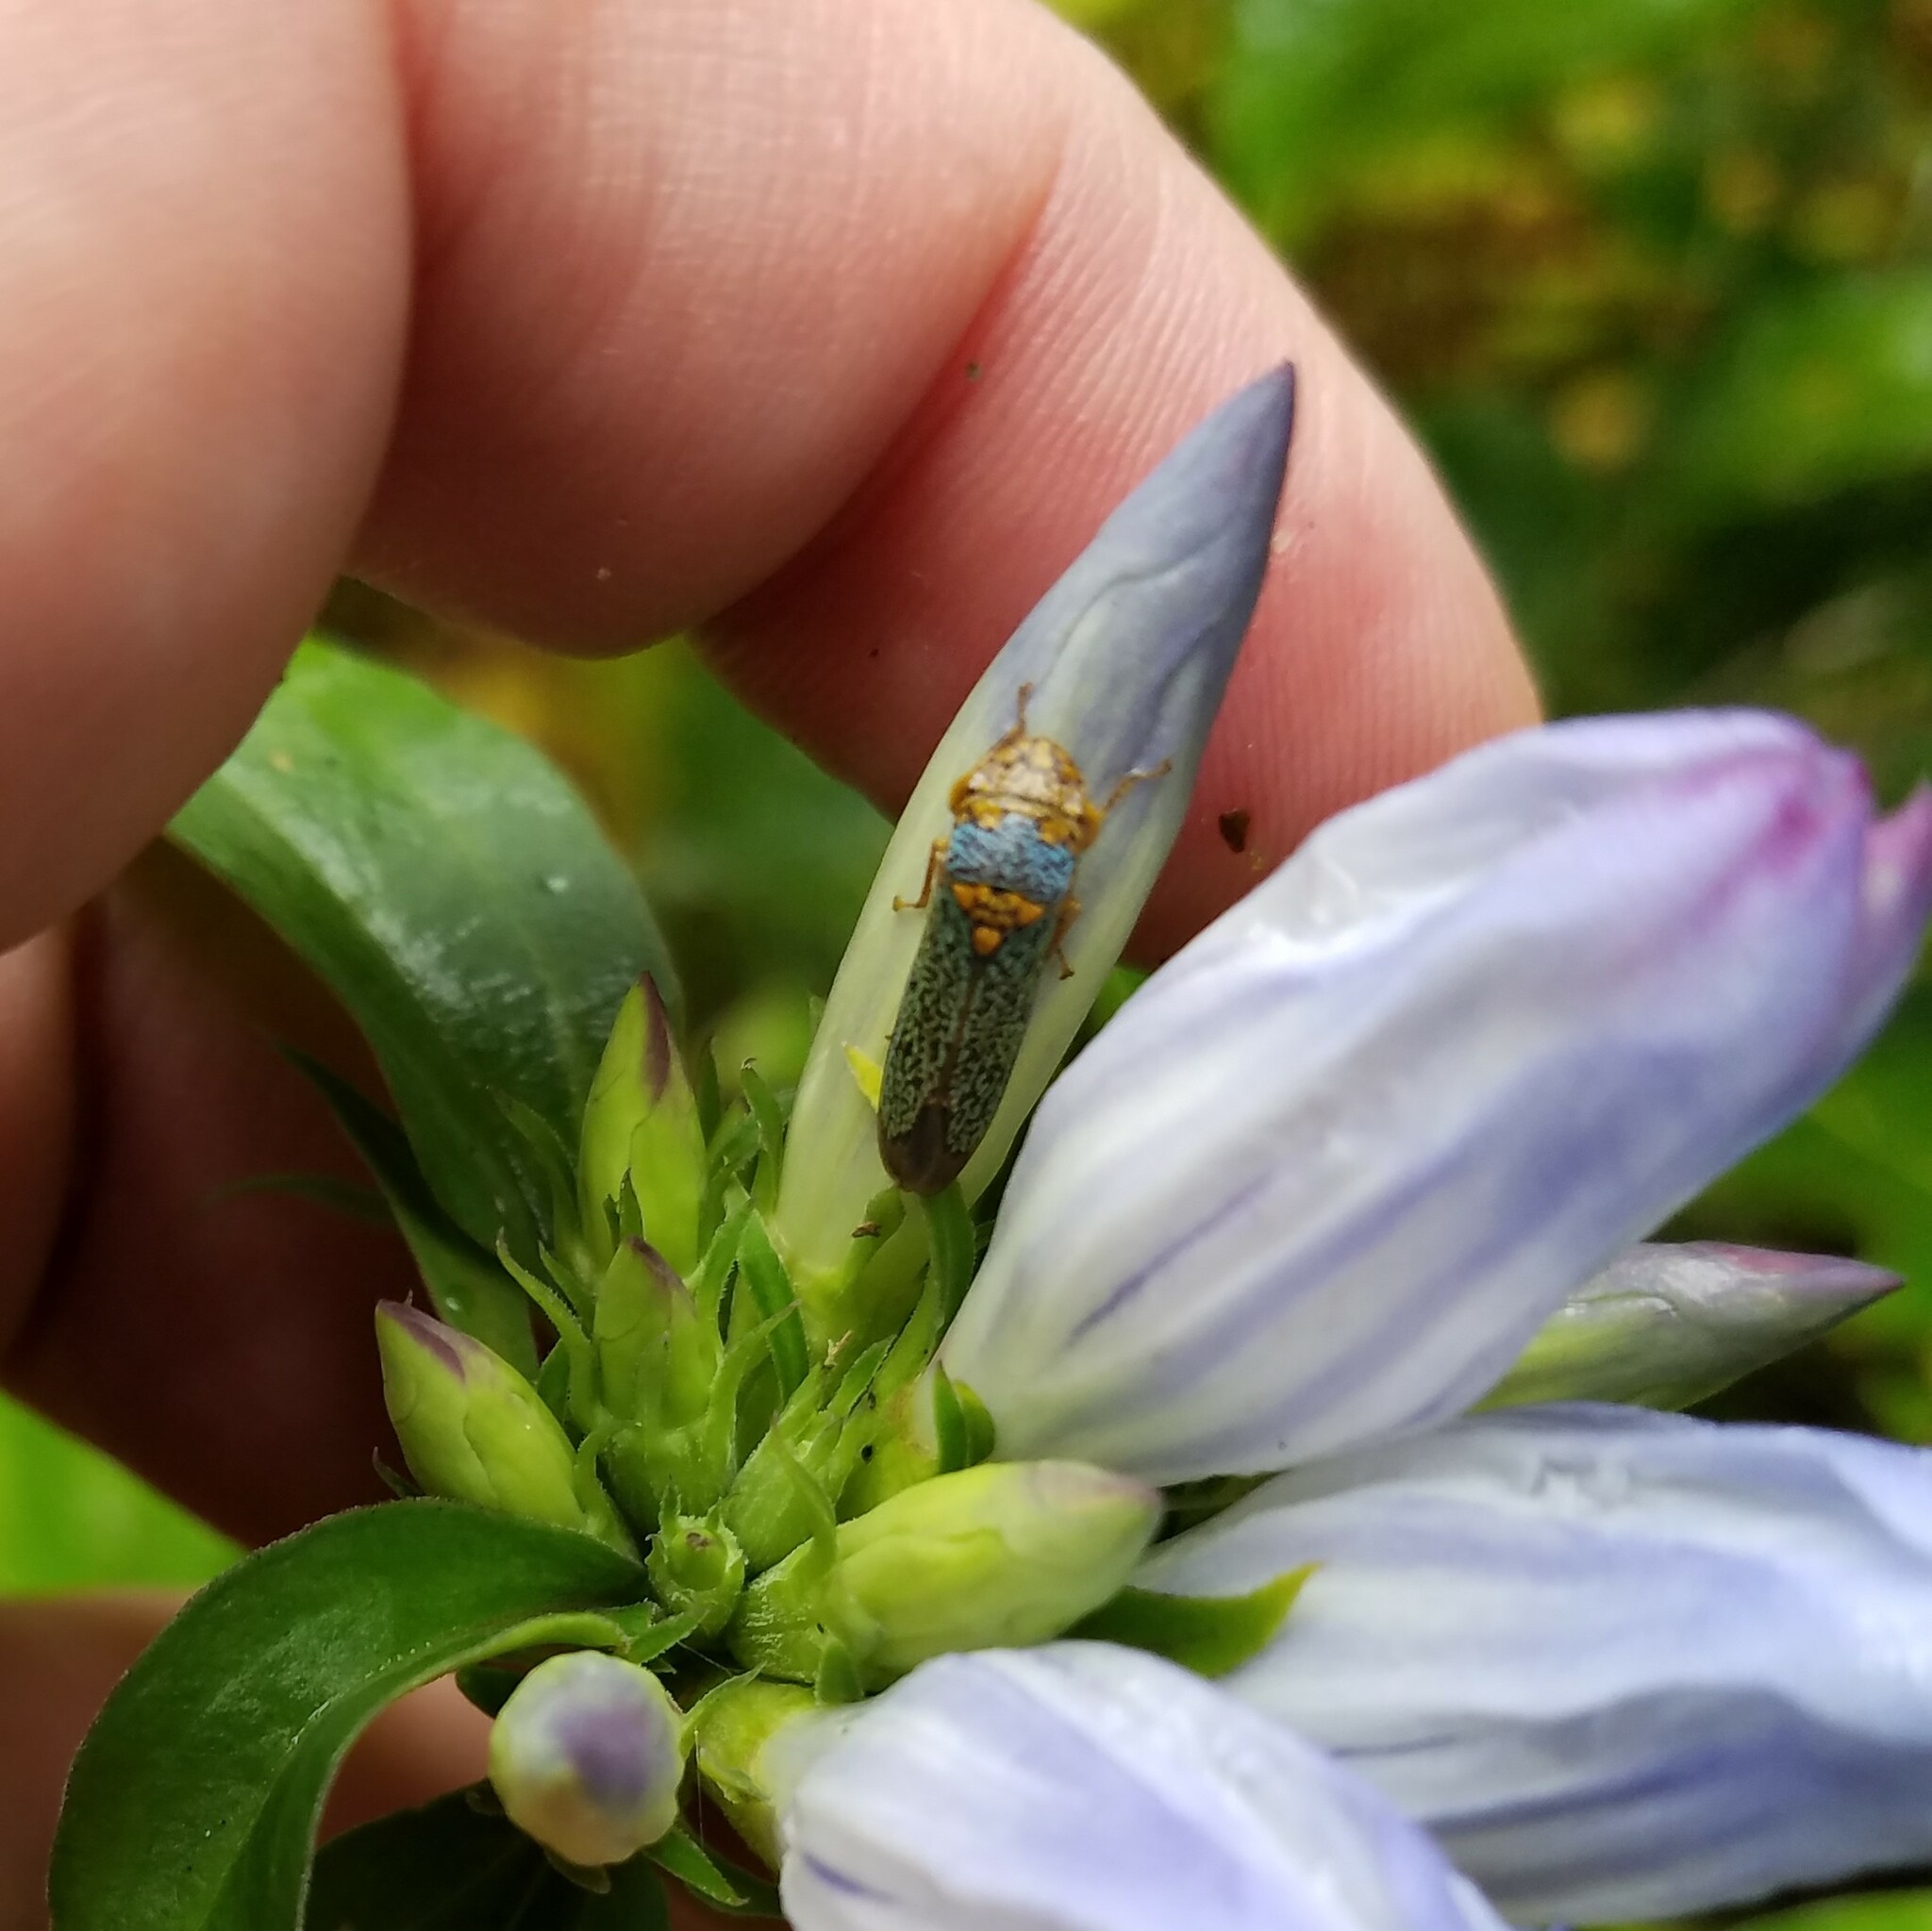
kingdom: Animalia
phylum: Arthropoda
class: Insecta
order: Hemiptera
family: Cicadellidae
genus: Oncometopia
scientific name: Oncometopia orbona
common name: Broad-headed sharpshooter
